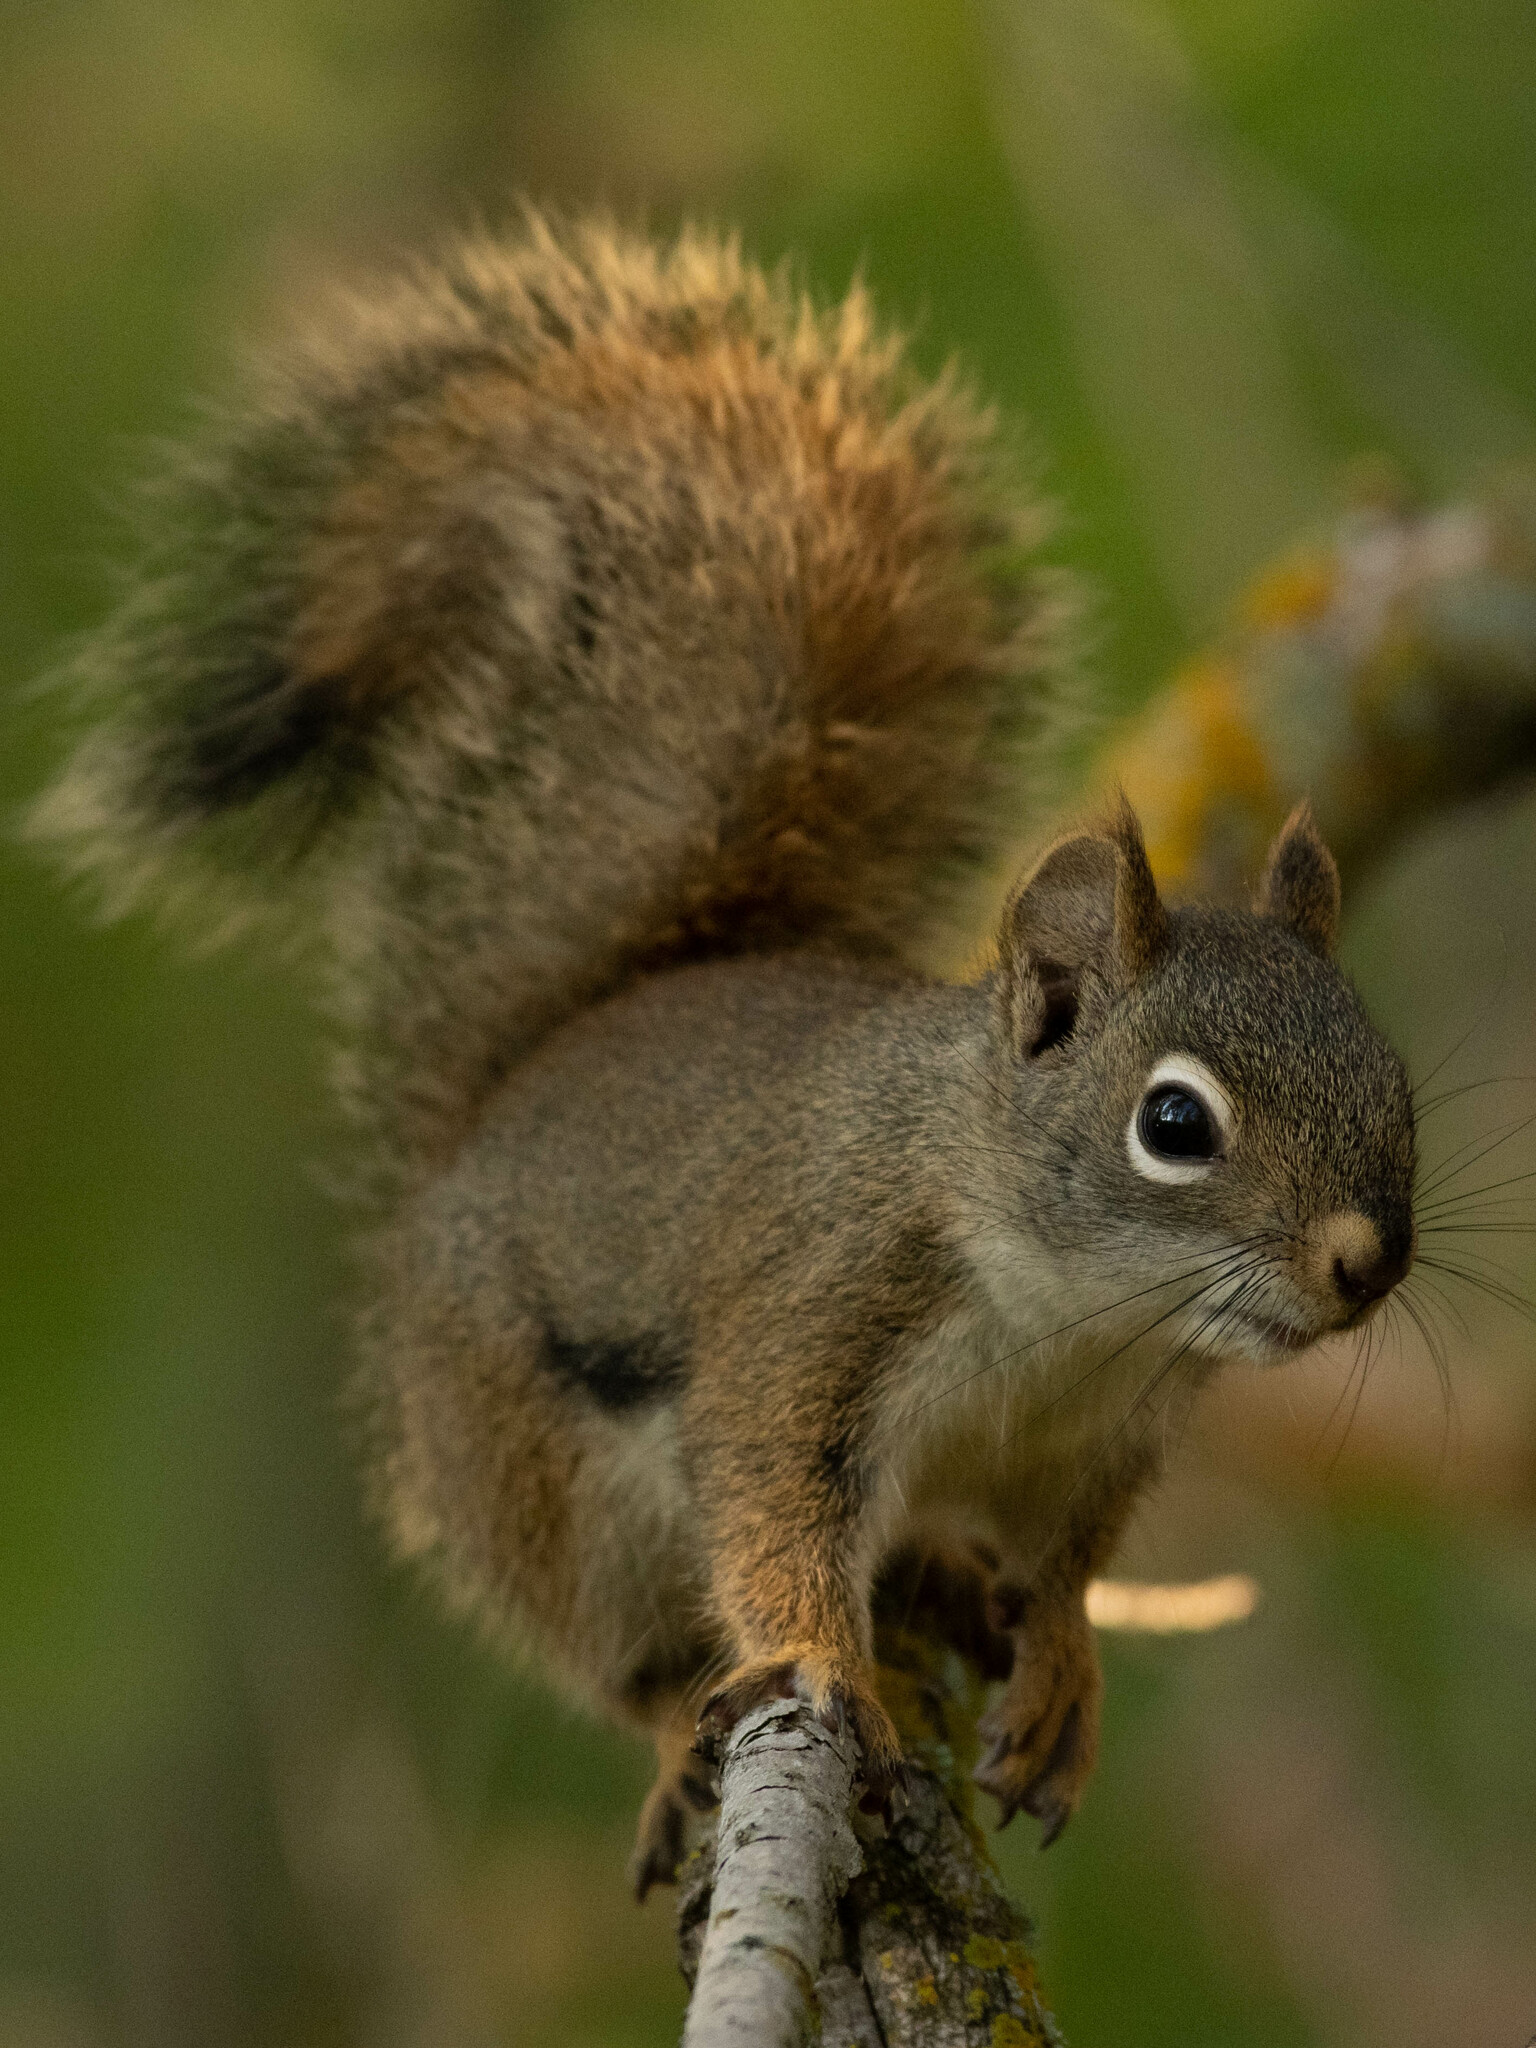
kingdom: Animalia
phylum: Chordata
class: Mammalia
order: Rodentia
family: Sciuridae
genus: Tamiasciurus
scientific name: Tamiasciurus hudsonicus
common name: Red squirrel
